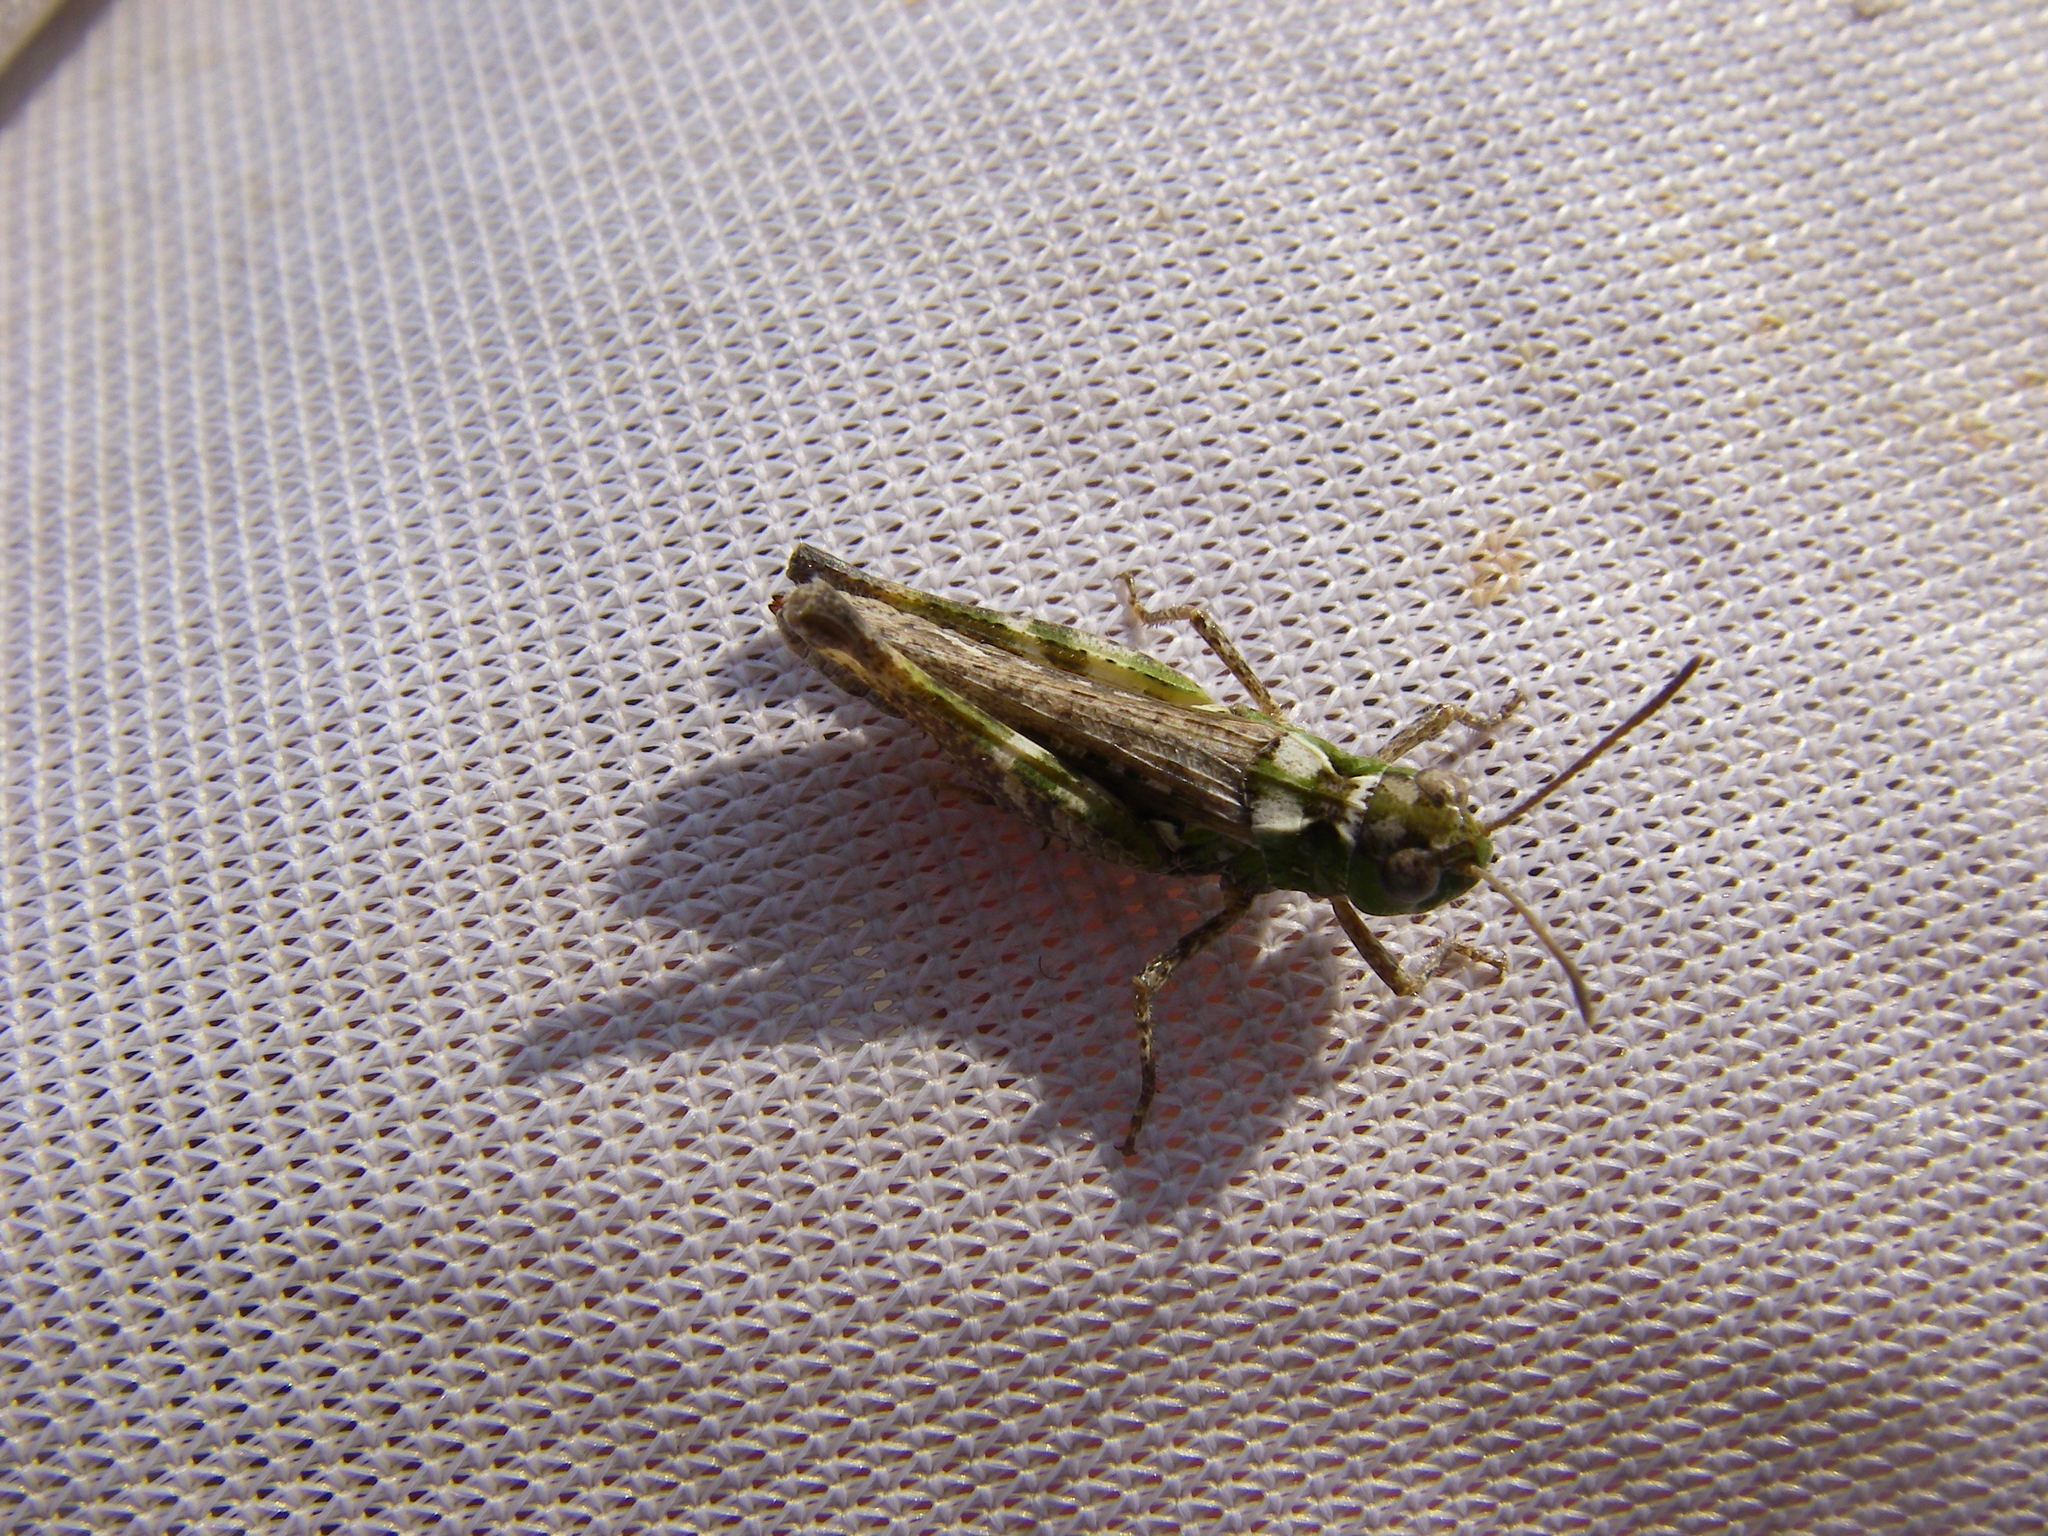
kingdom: Animalia
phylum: Arthropoda
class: Insecta
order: Orthoptera
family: Acrididae
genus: Myrmeleotettix
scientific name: Myrmeleotettix maculatus
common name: Mottled grasshopper
